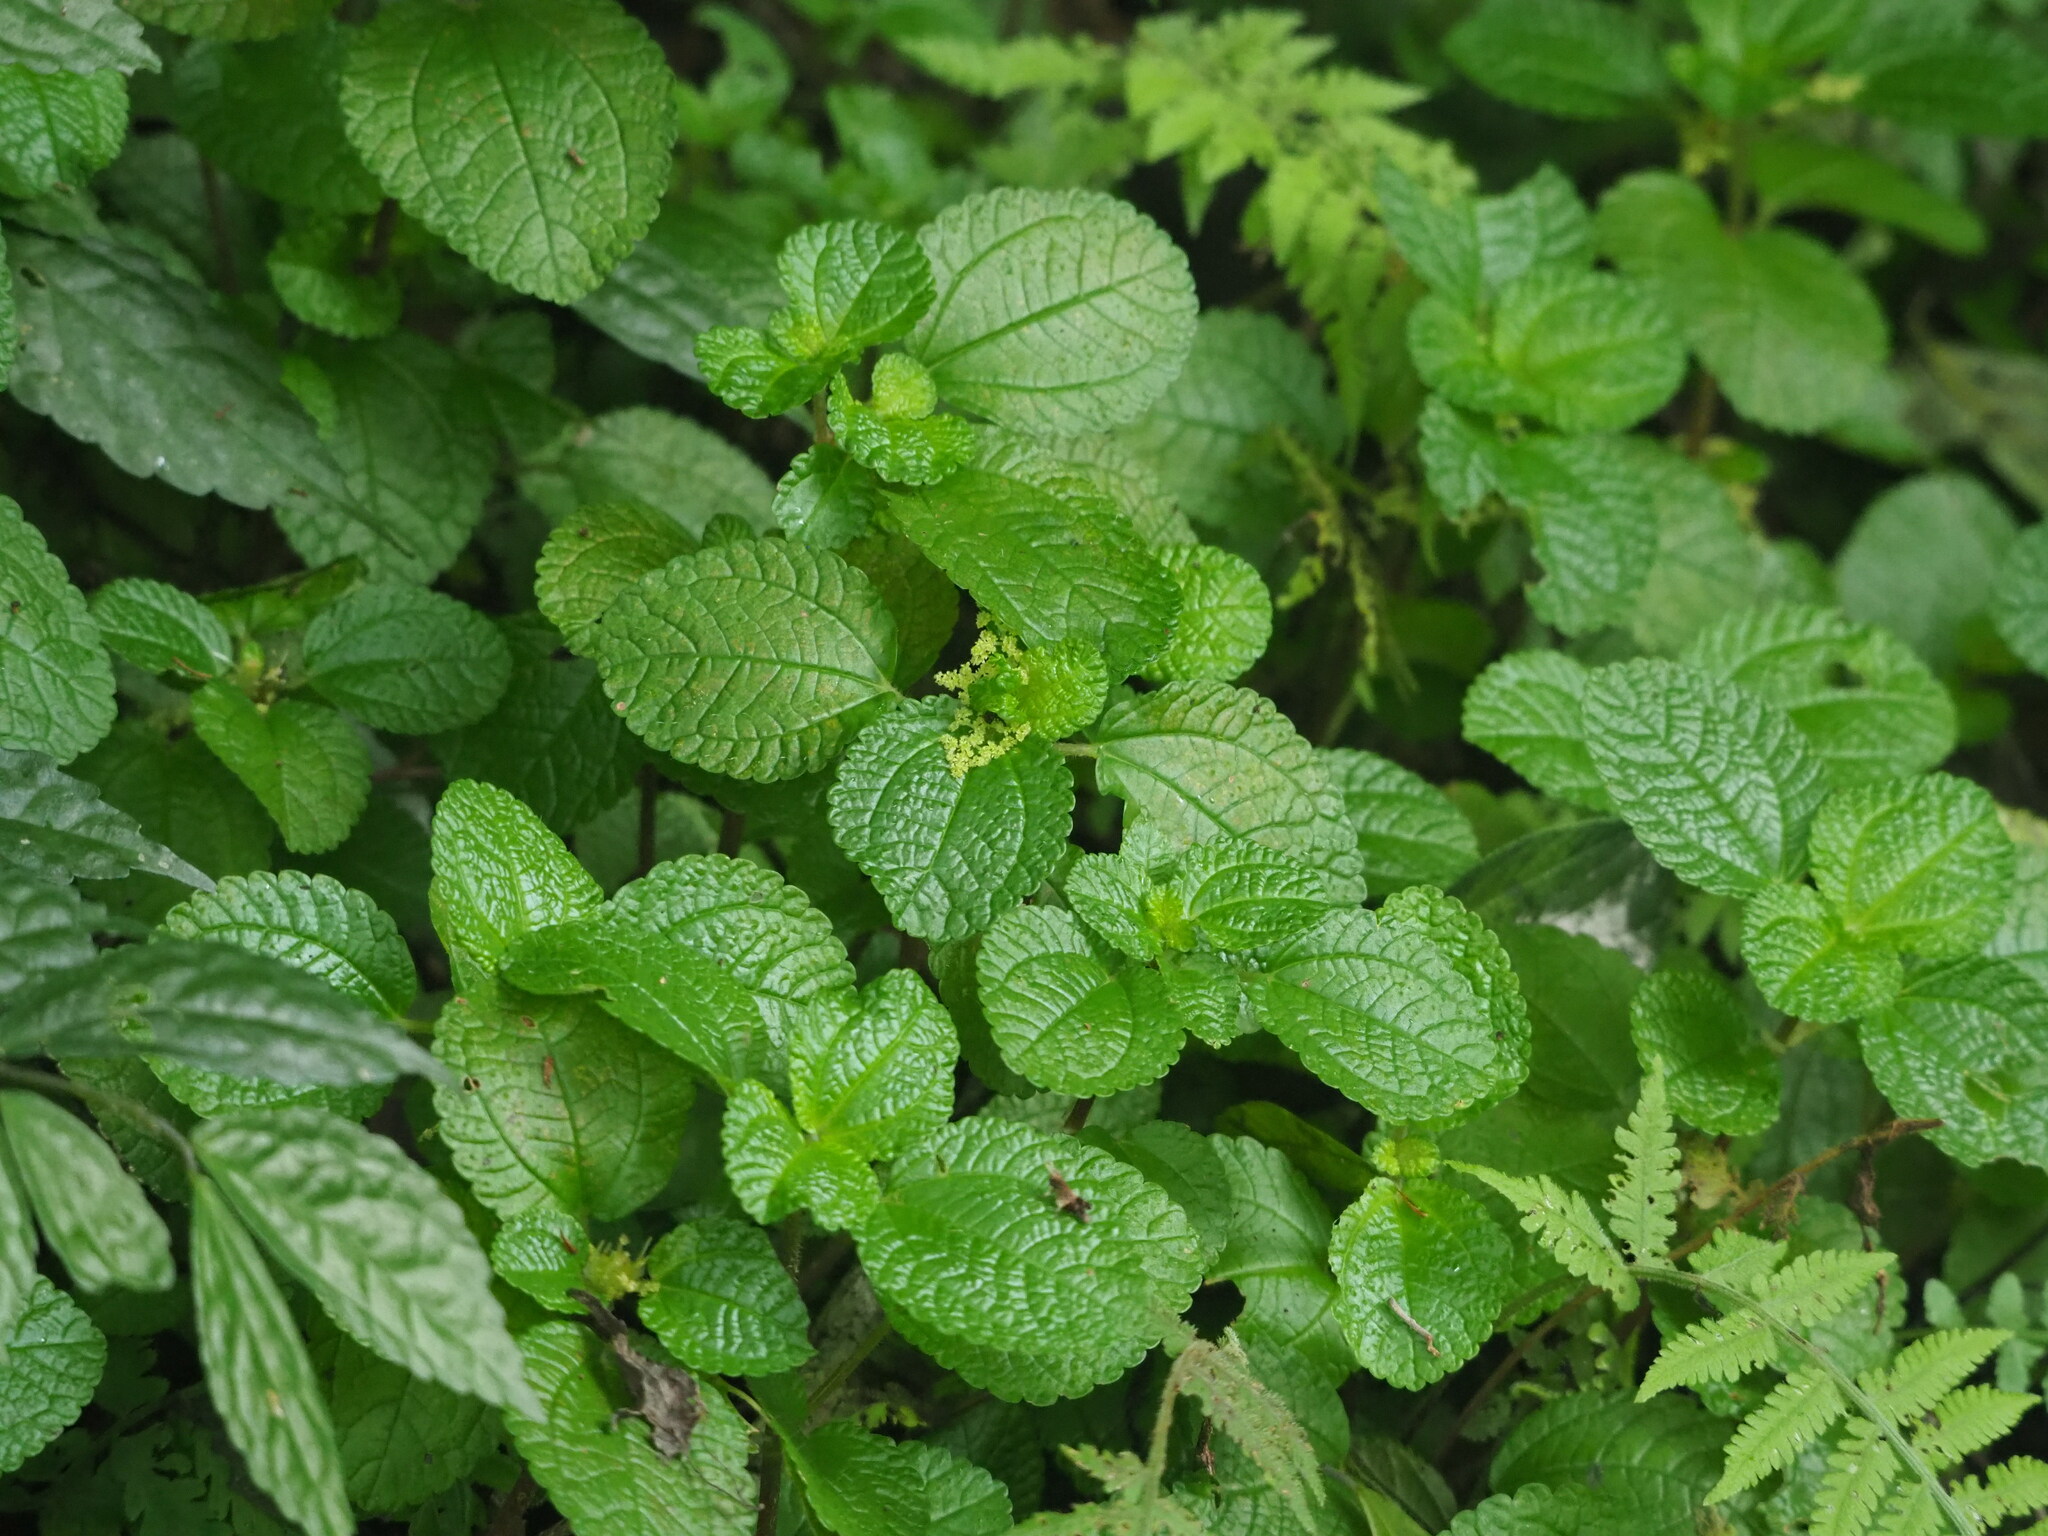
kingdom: Plantae
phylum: Tracheophyta
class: Magnoliopsida
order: Rosales
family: Urticaceae
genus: Pilea
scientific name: Pilea nummulariifolia
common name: Creeping-charlie
